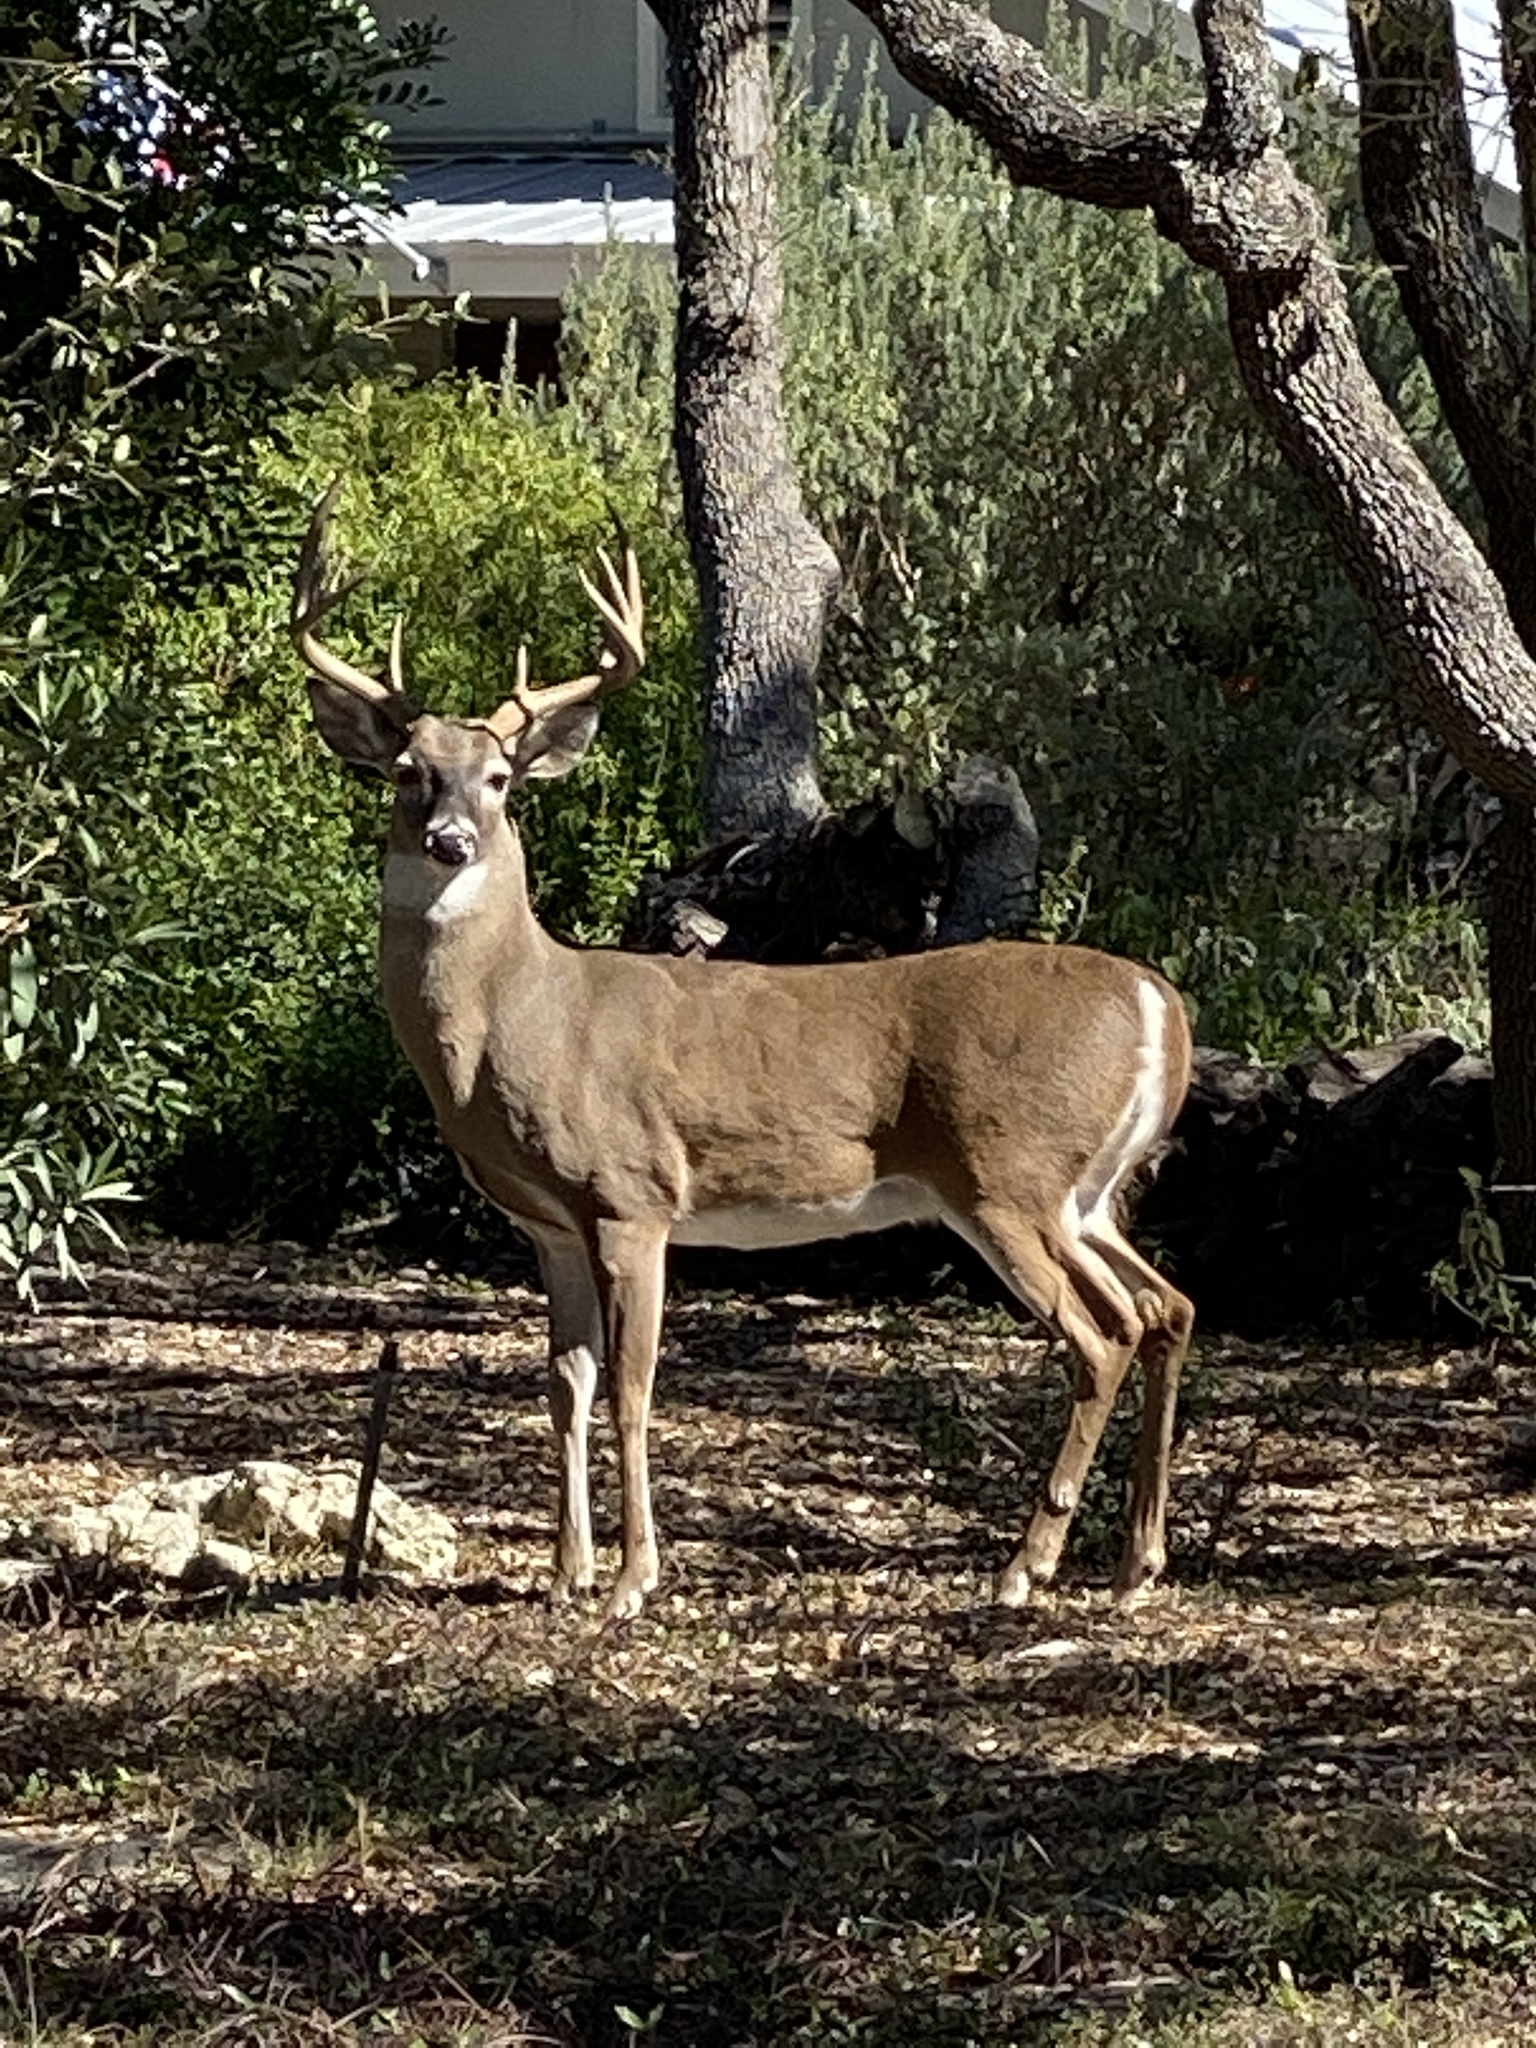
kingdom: Animalia
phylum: Chordata
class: Mammalia
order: Artiodactyla
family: Cervidae
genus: Odocoileus
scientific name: Odocoileus virginianus
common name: White-tailed deer
